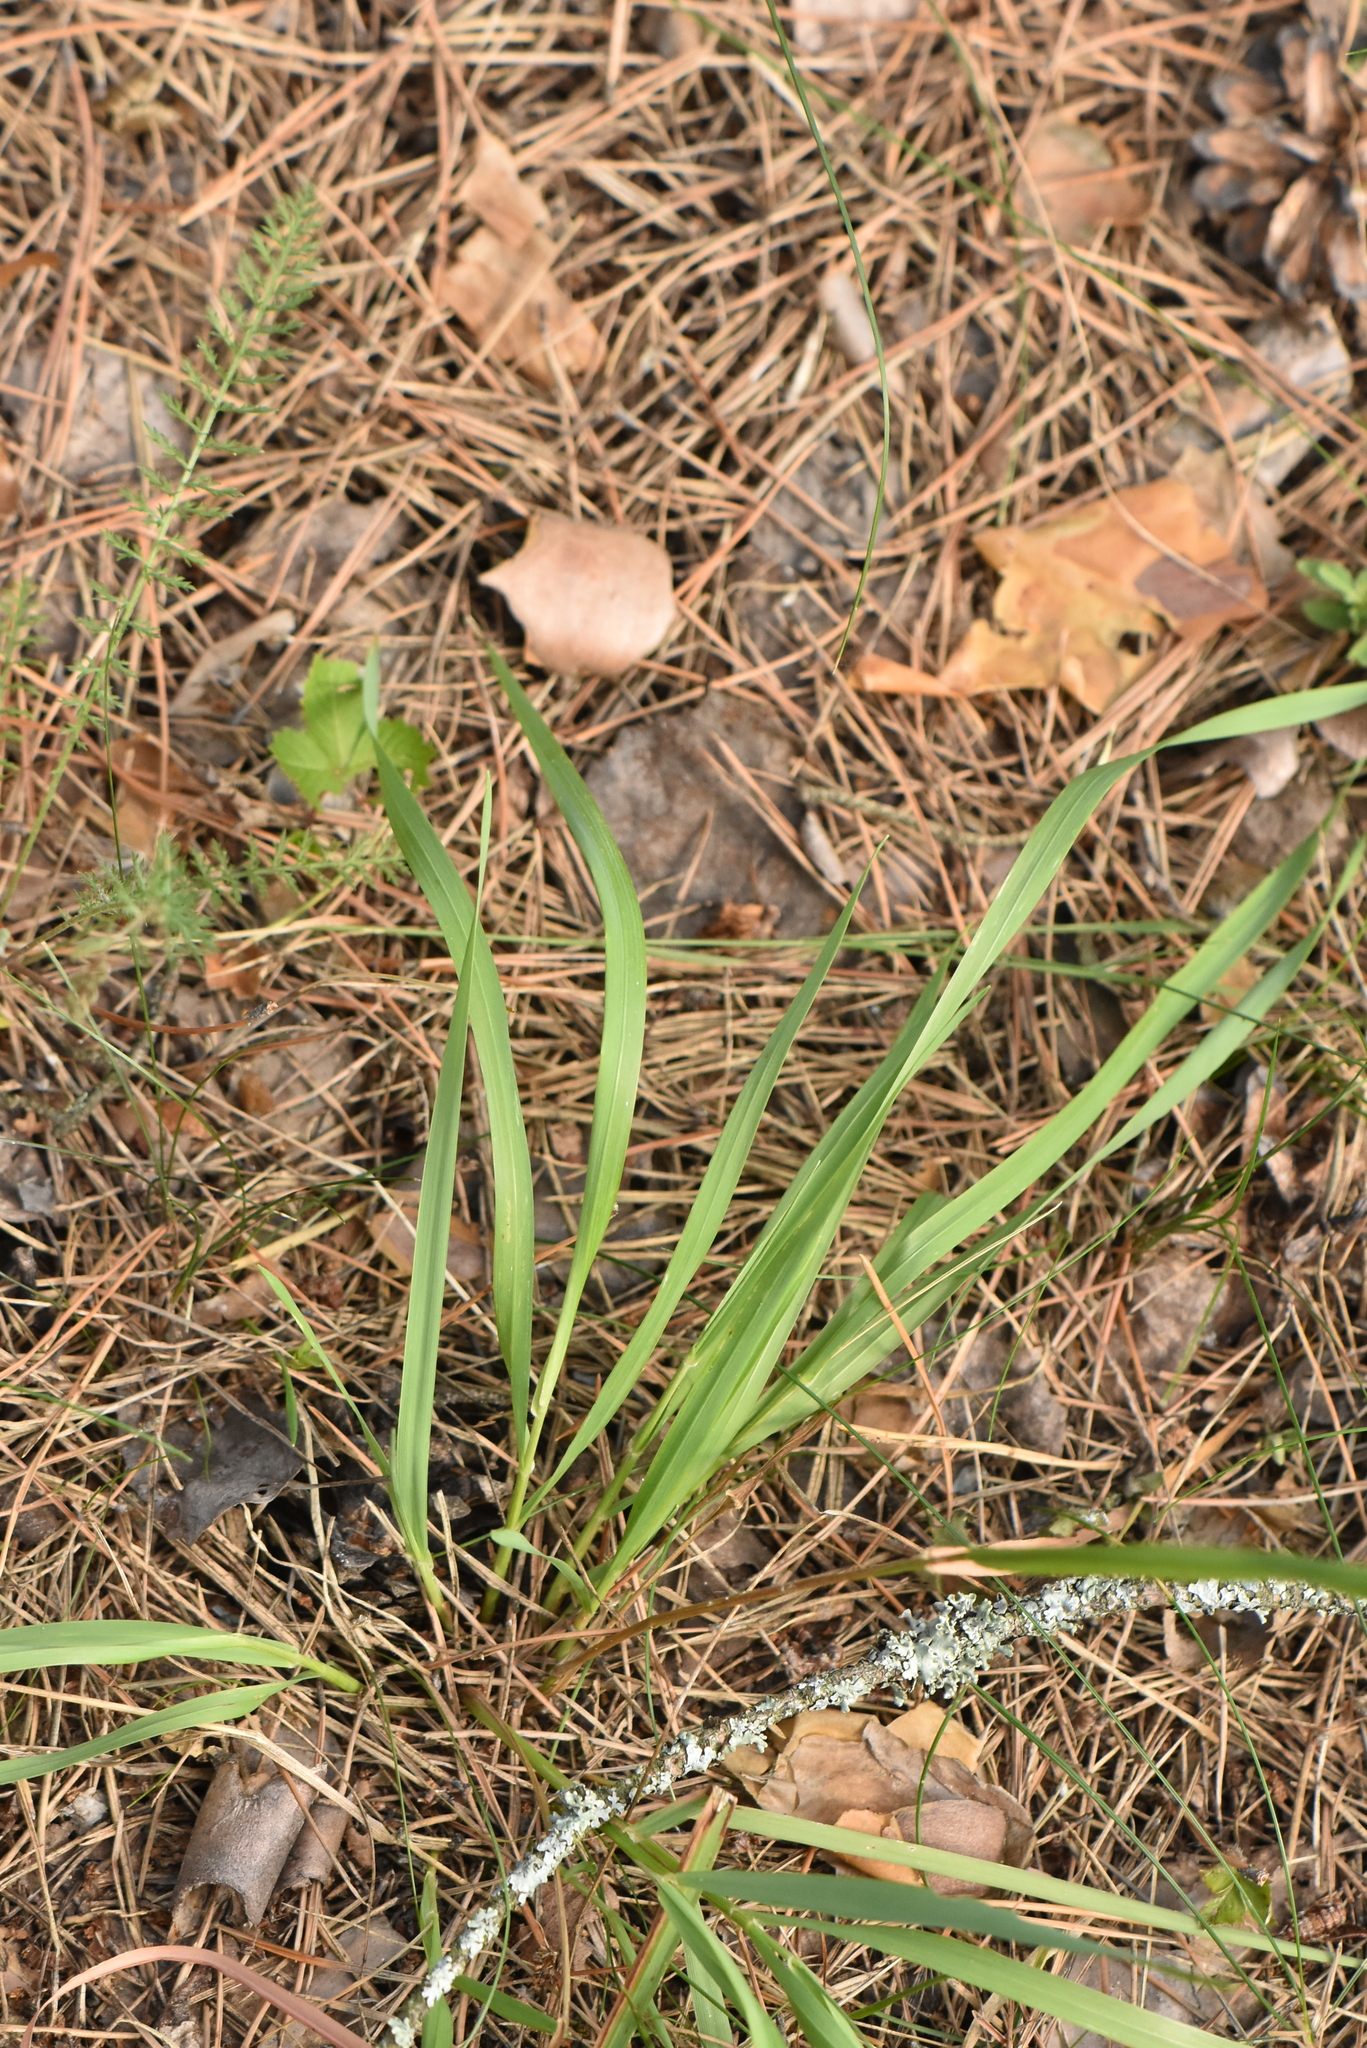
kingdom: Plantae
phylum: Tracheophyta
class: Liliopsida
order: Poales
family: Juncaceae
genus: Luzula
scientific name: Luzula pilosa
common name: Hairy wood-rush
